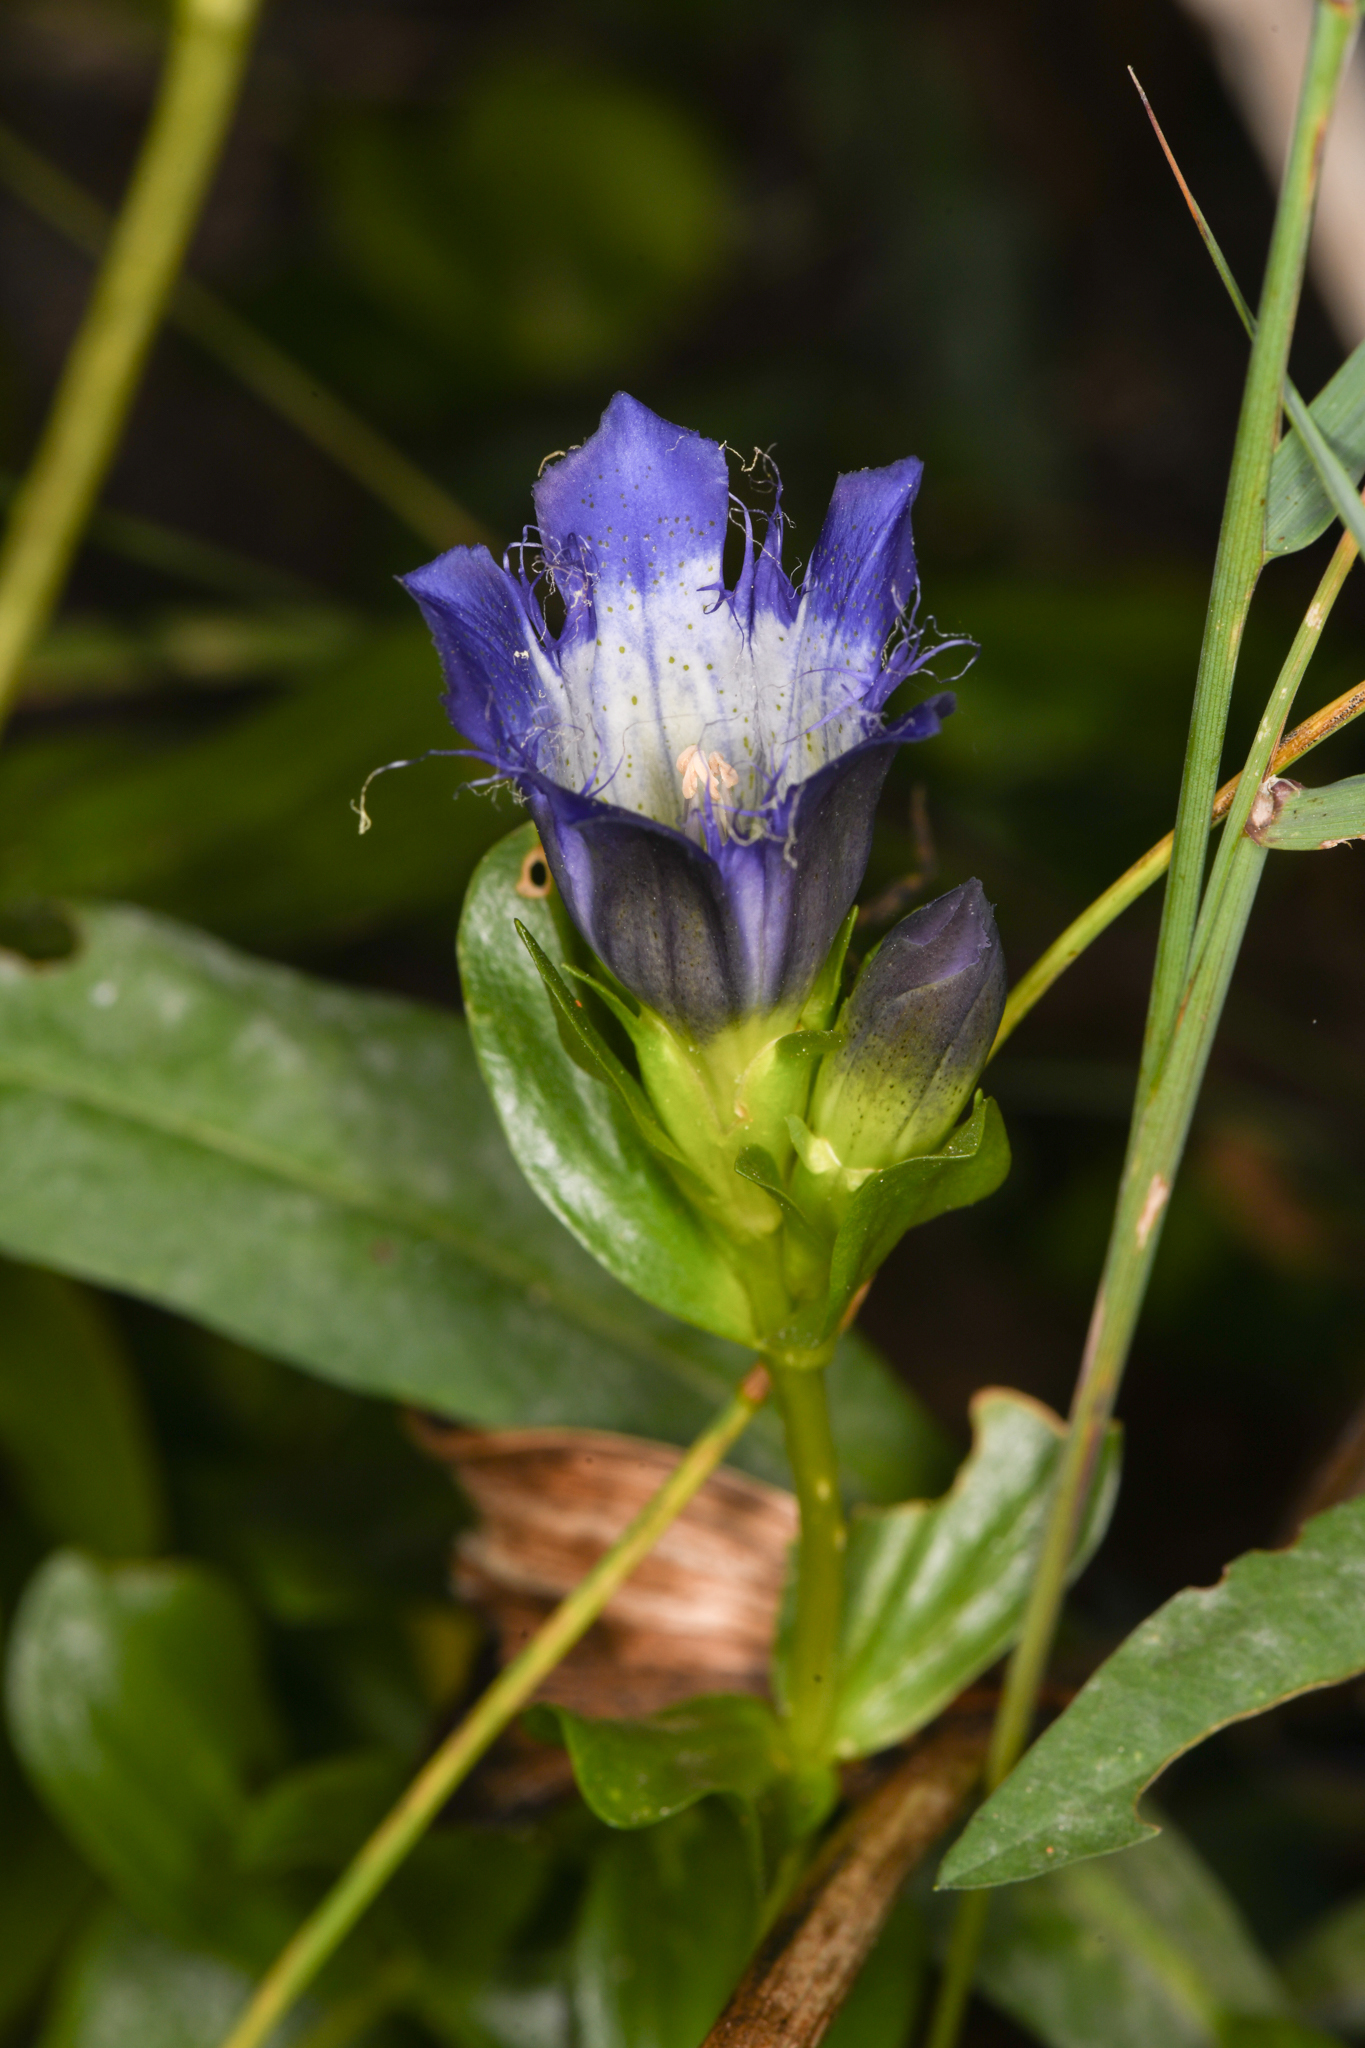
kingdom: Plantae
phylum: Tracheophyta
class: Magnoliopsida
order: Gentianales
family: Gentianaceae
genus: Gentiana
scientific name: Gentiana plurisetosa
